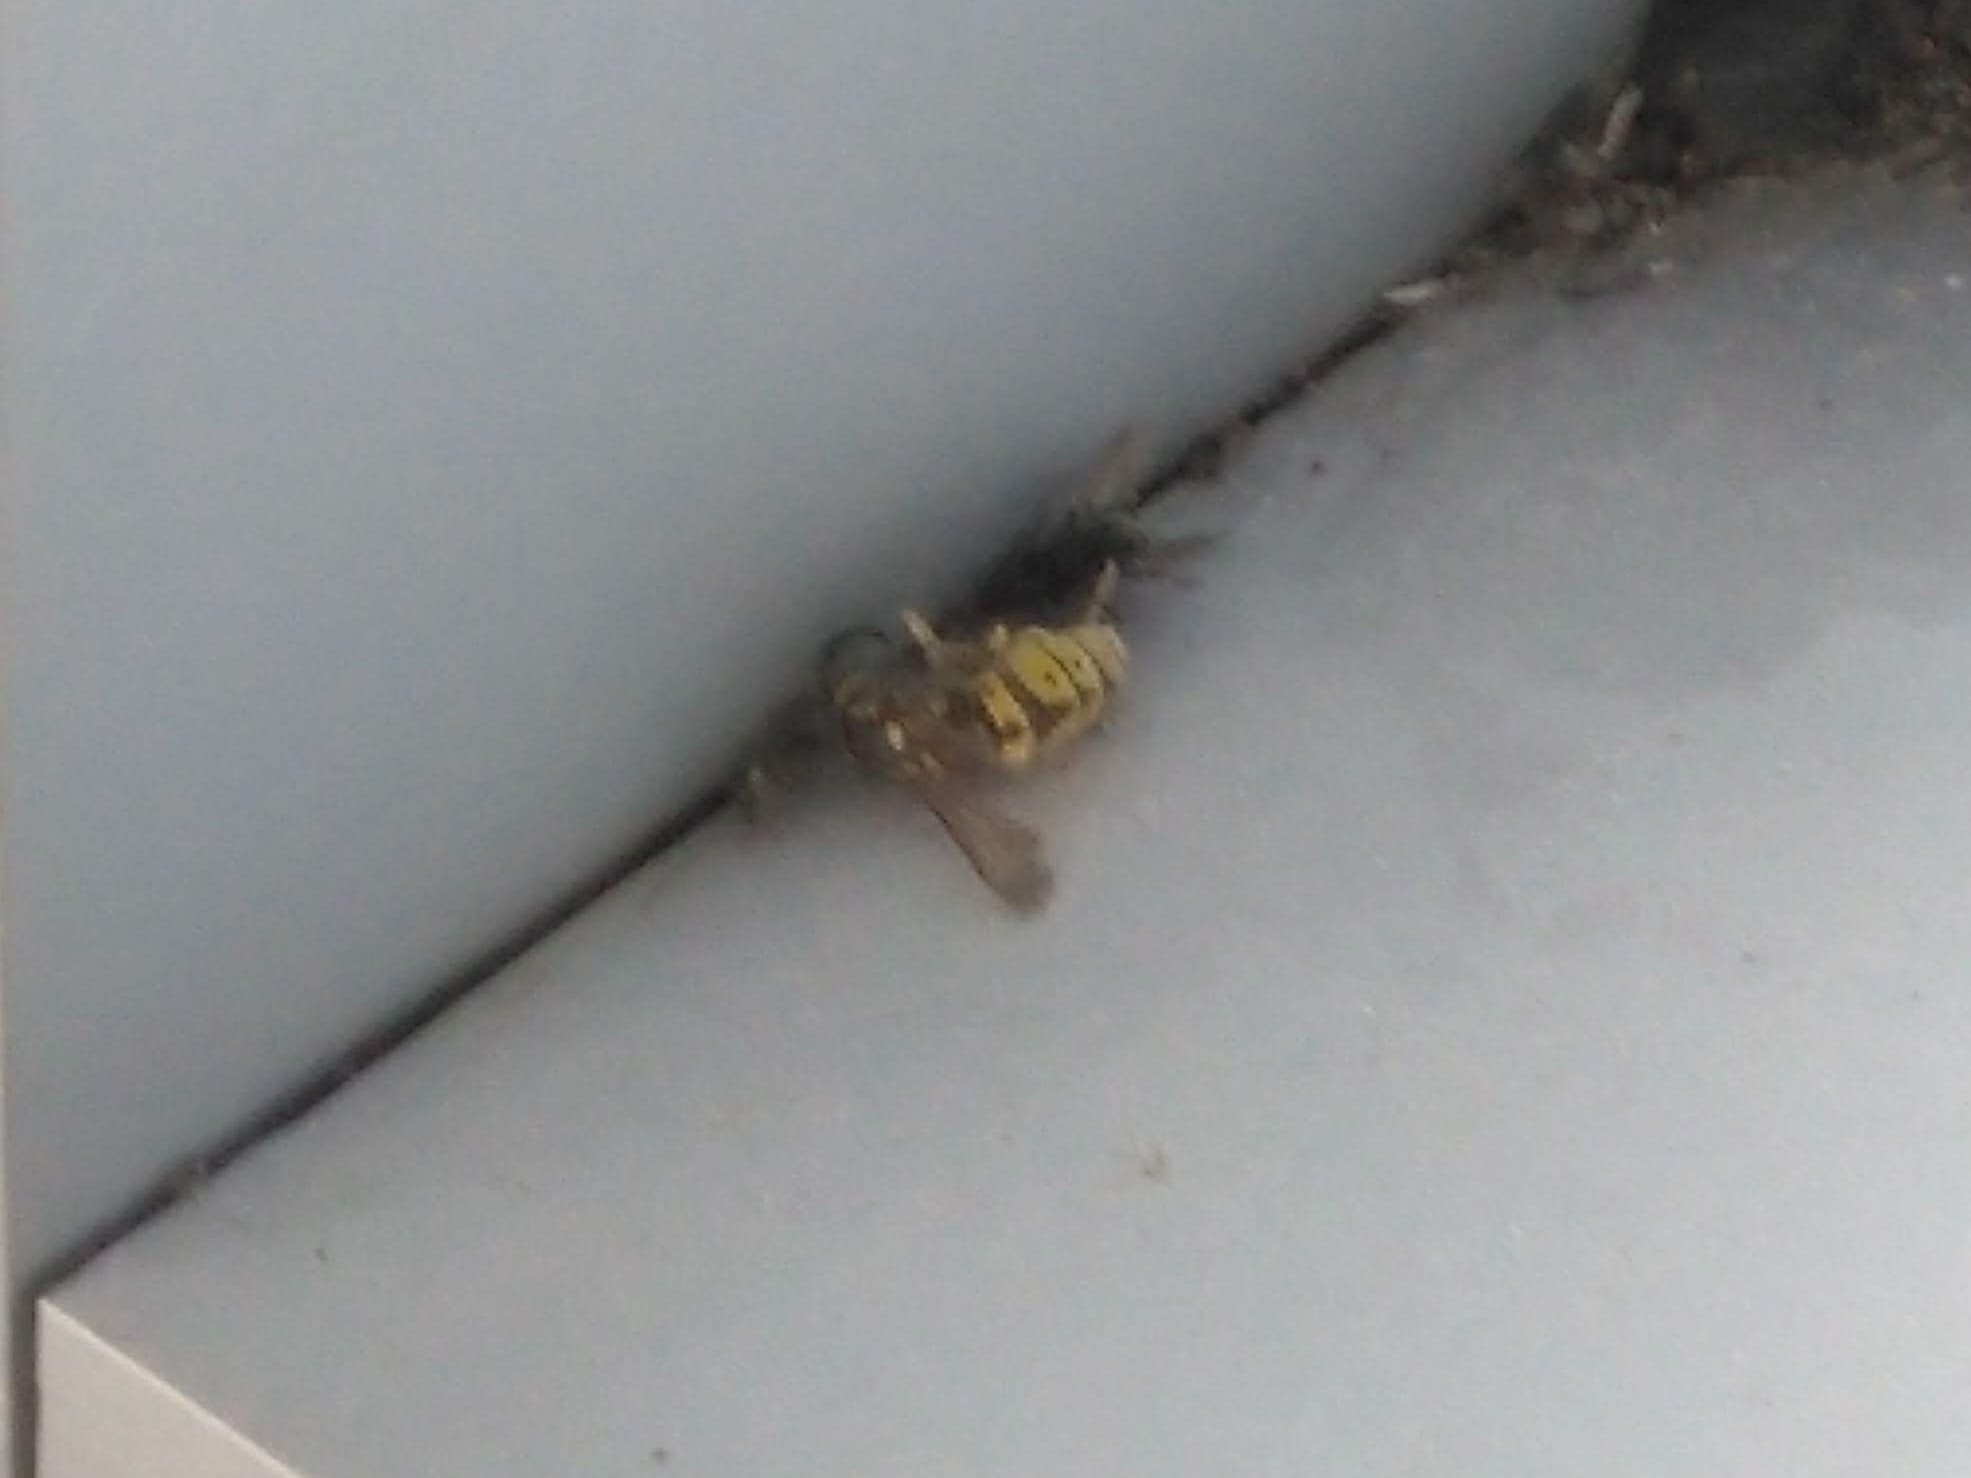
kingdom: Animalia
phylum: Arthropoda
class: Insecta
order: Hymenoptera
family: Vespidae
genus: Vespula
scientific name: Vespula germanica
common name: German wasp
